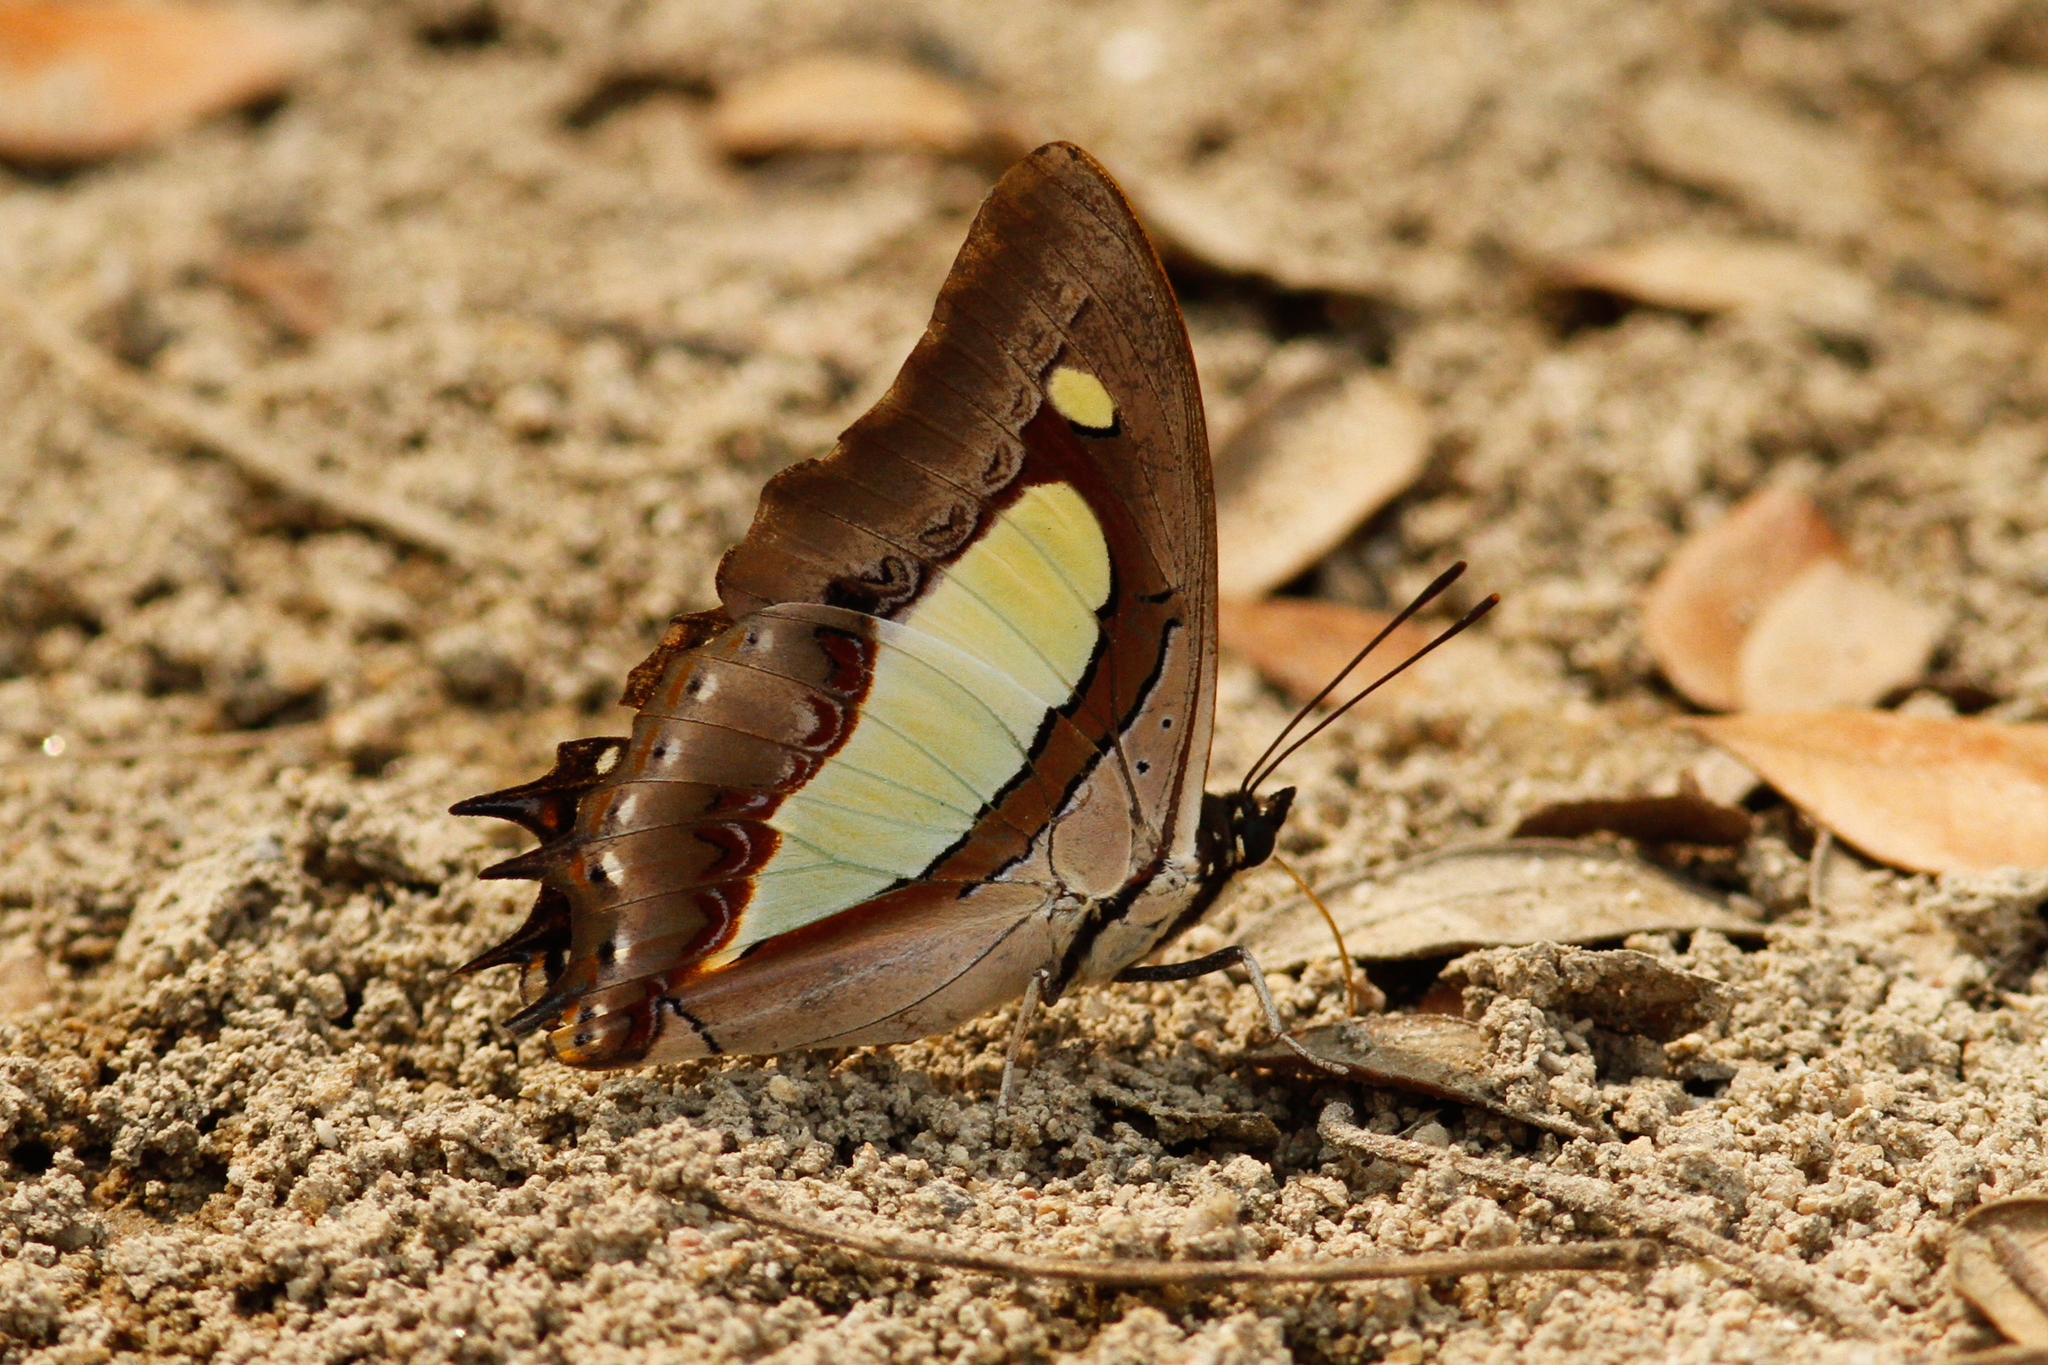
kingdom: Animalia
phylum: Arthropoda
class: Insecta
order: Lepidoptera
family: Nymphalidae
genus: Polyura
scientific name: Polyura athamas
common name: Common nawab
